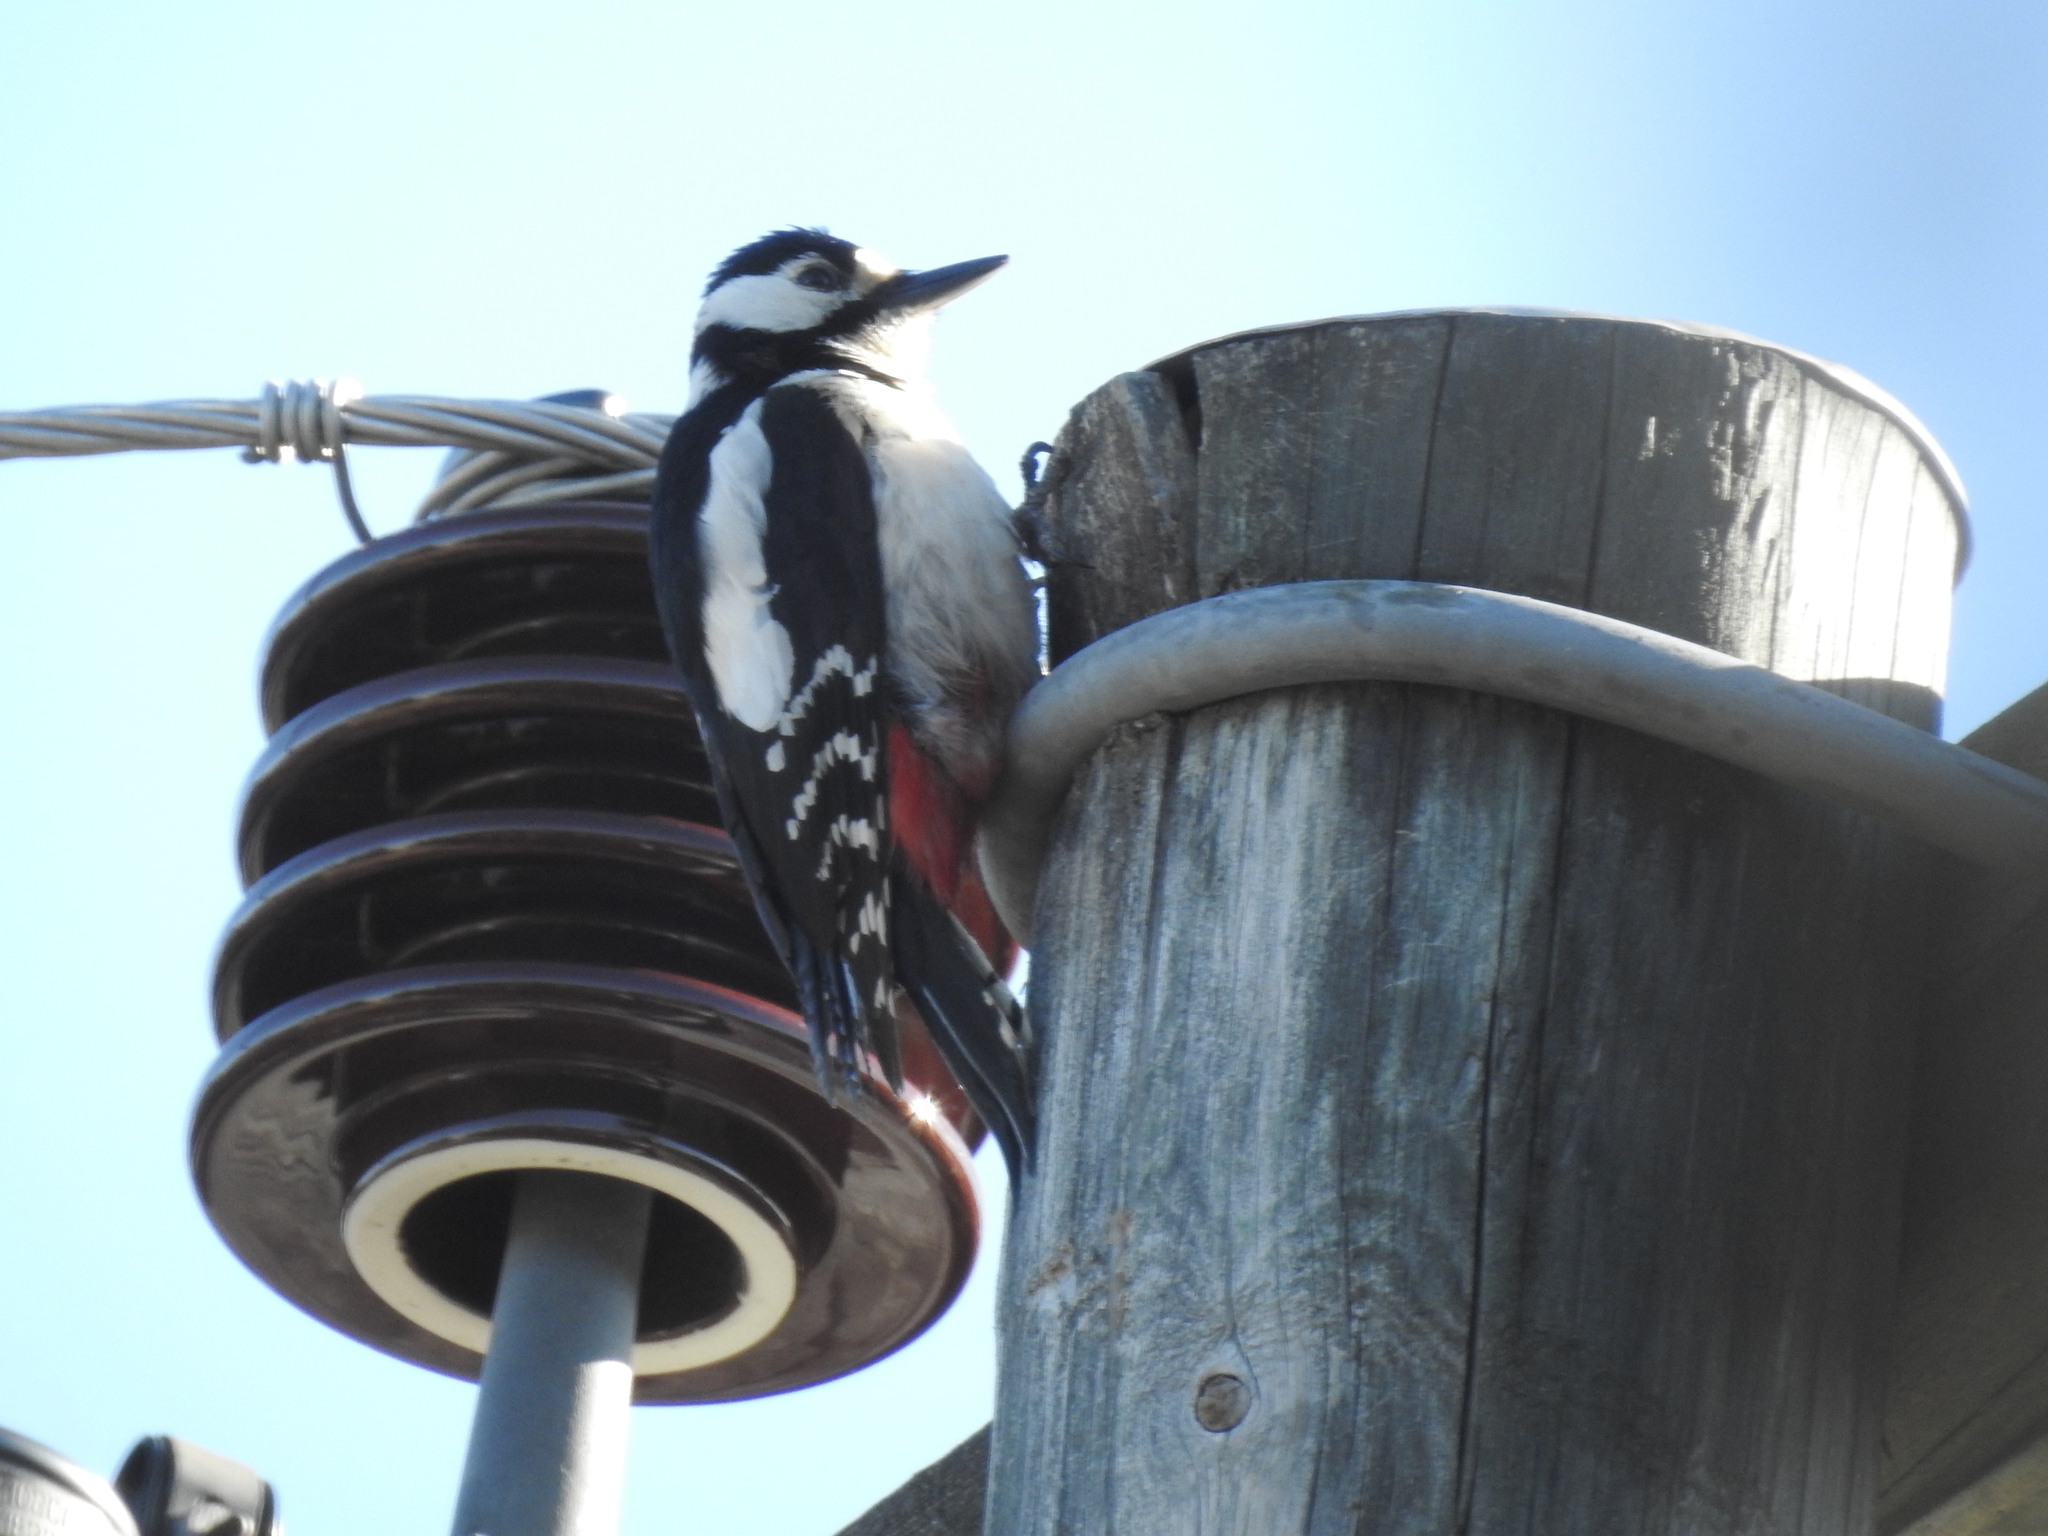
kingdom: Animalia
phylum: Chordata
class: Aves
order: Piciformes
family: Picidae
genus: Dendrocopos
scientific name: Dendrocopos major
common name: Great spotted woodpecker
